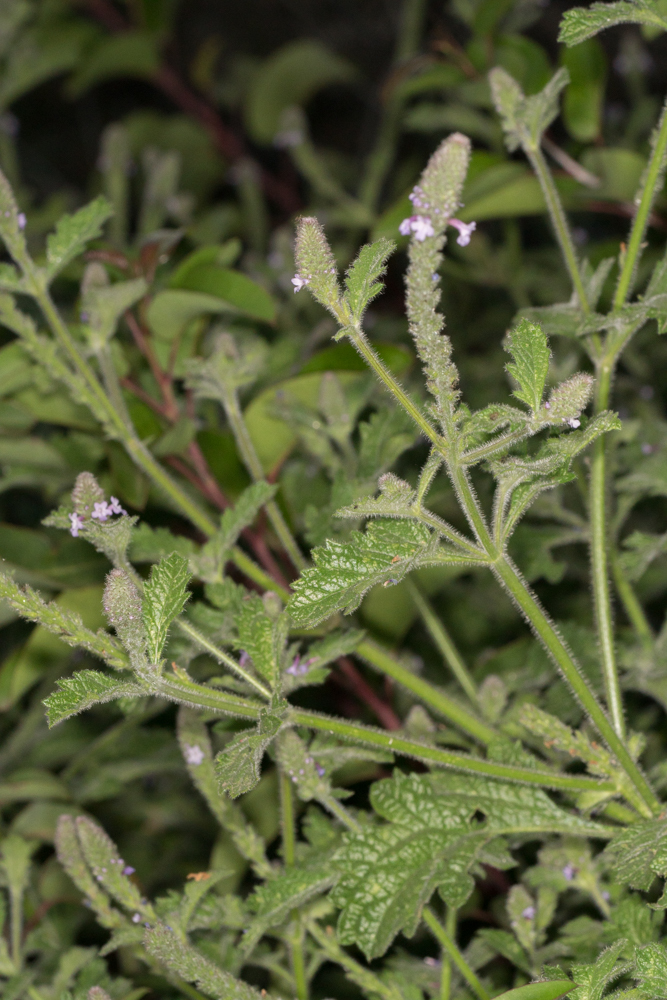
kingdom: Plantae
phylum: Tracheophyta
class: Magnoliopsida
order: Lamiales
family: Verbenaceae
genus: Verbena
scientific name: Verbena lasiostachys
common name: Vervain
